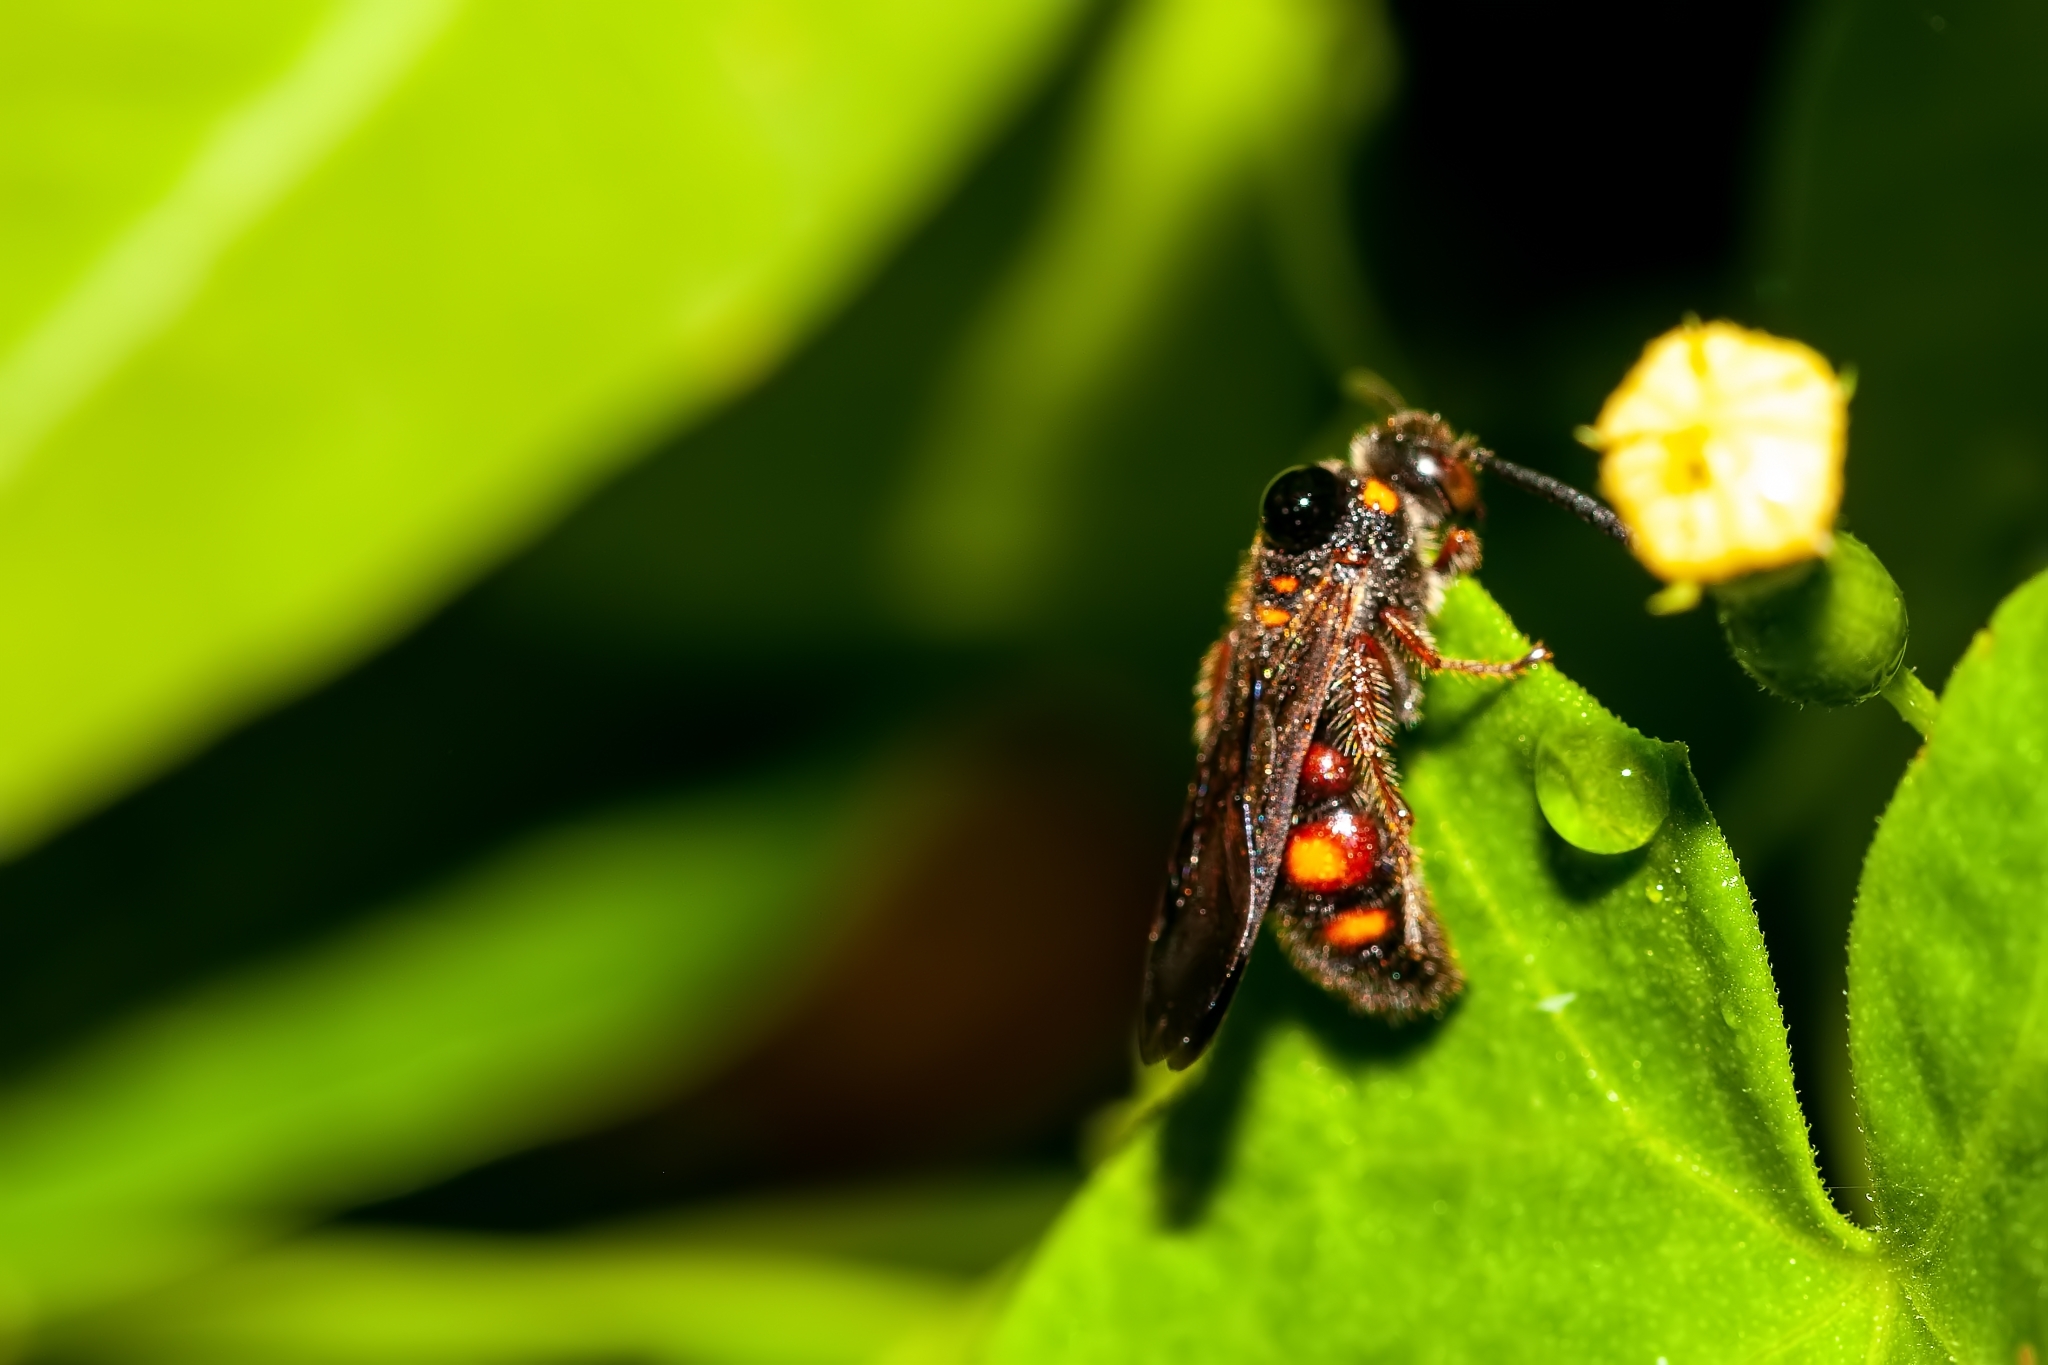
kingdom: Animalia
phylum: Arthropoda
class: Insecta
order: Hymenoptera
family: Scoliidae
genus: Scolia
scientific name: Scolia nobilitata
